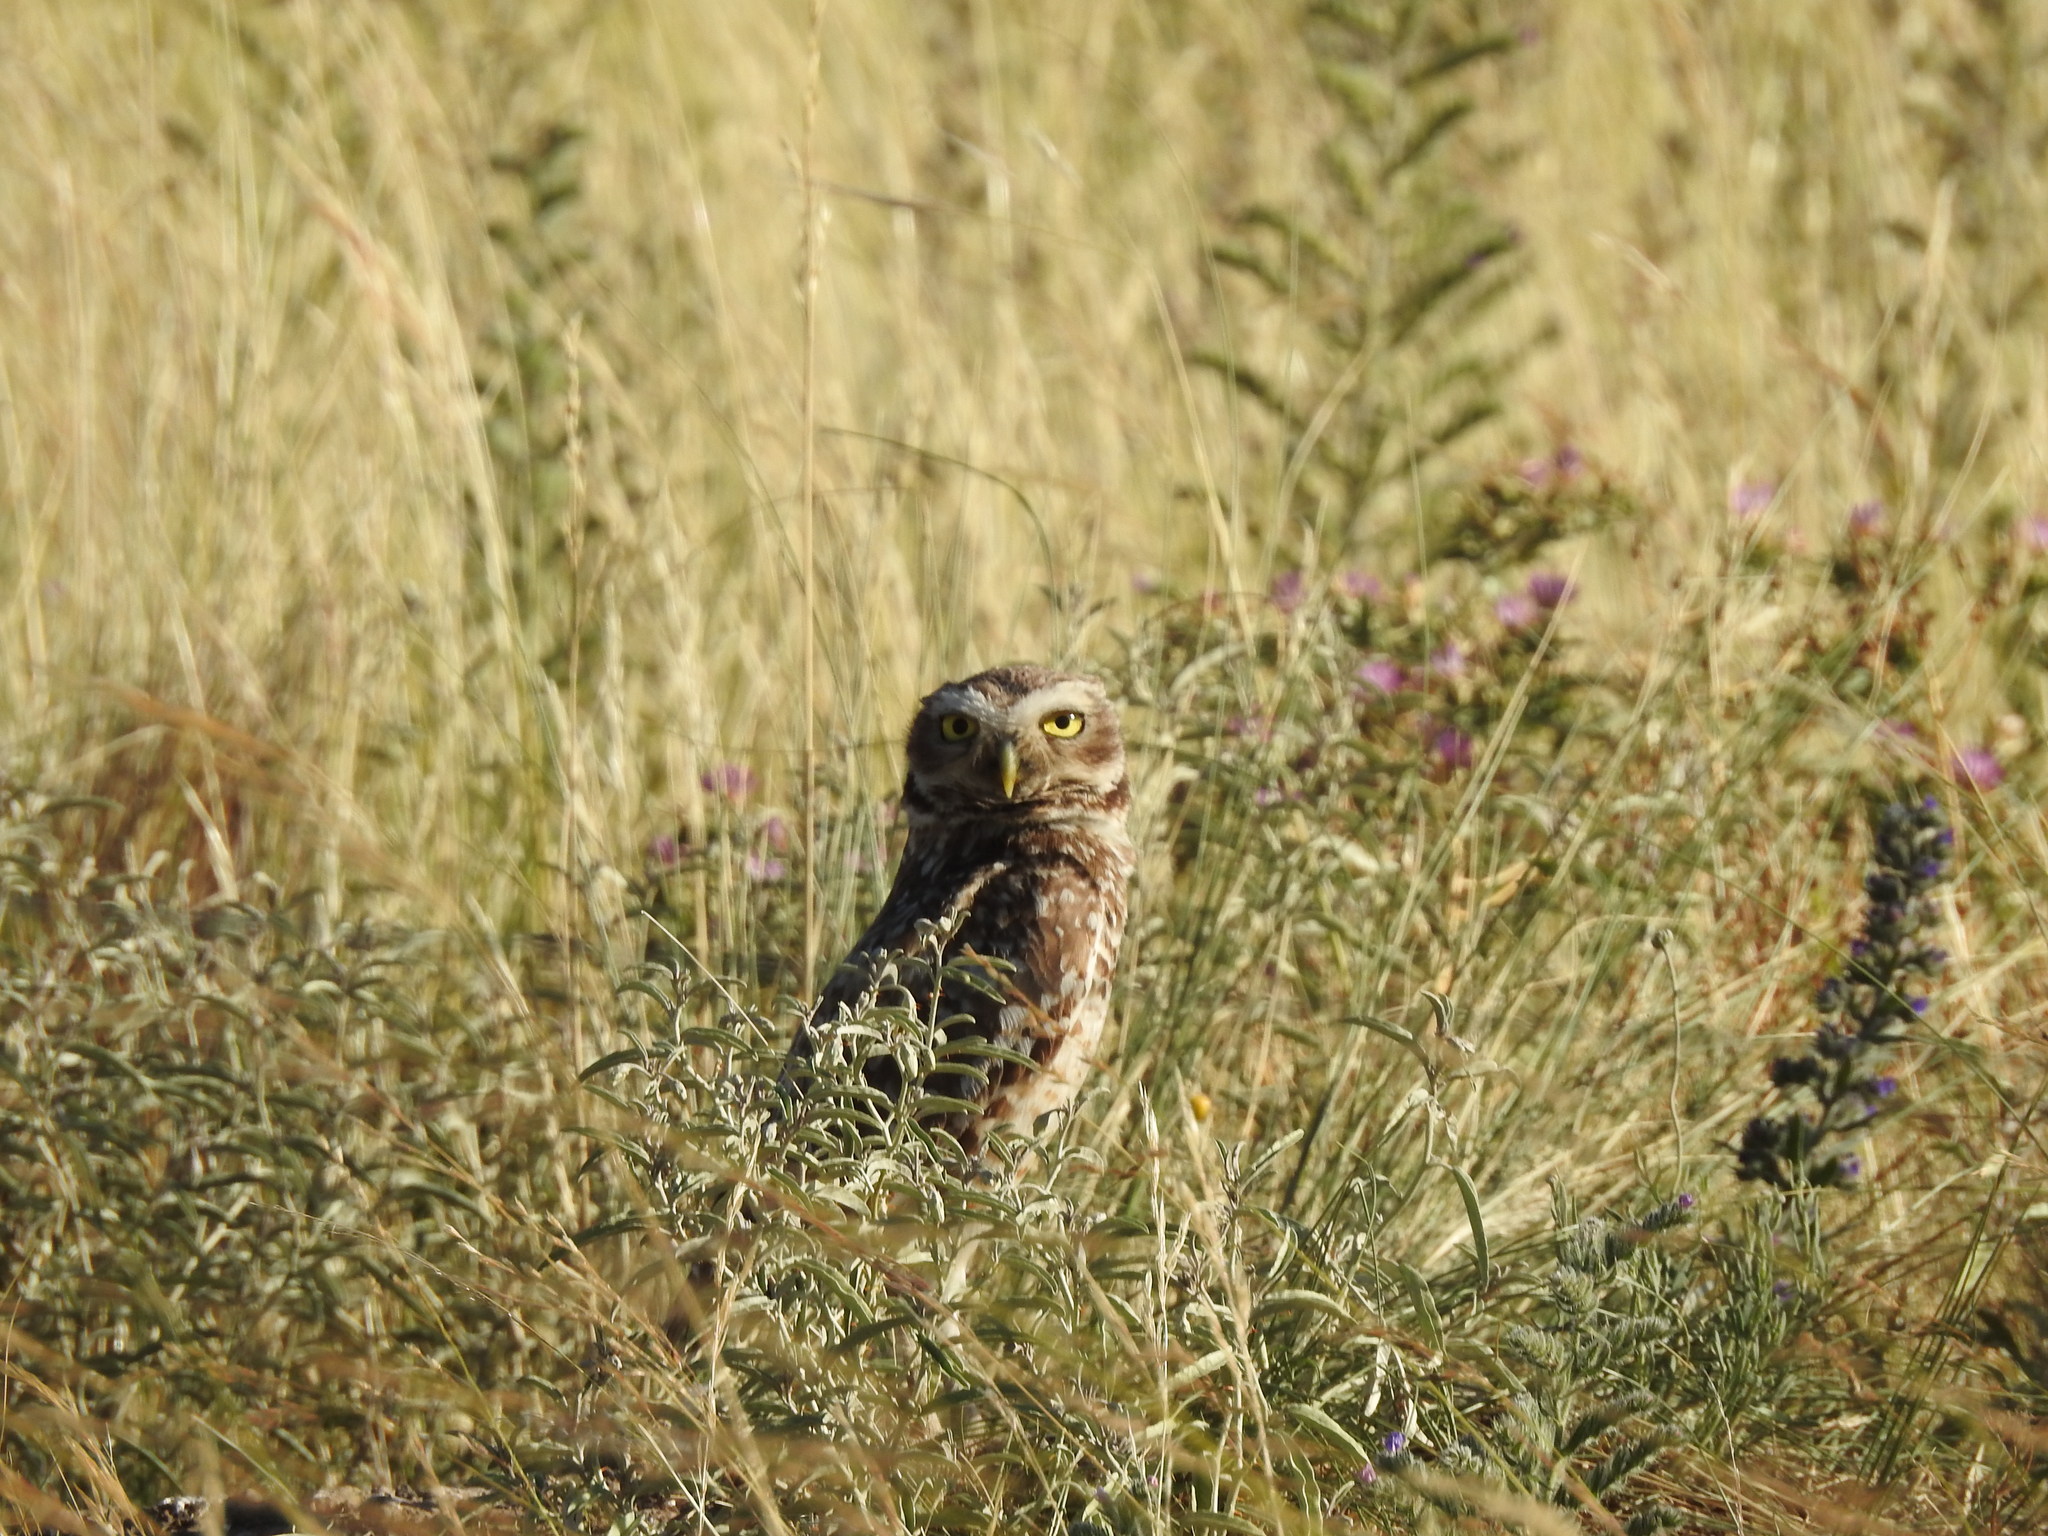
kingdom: Animalia
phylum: Chordata
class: Aves
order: Strigiformes
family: Strigidae
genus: Athene
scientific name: Athene cunicularia
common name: Burrowing owl
